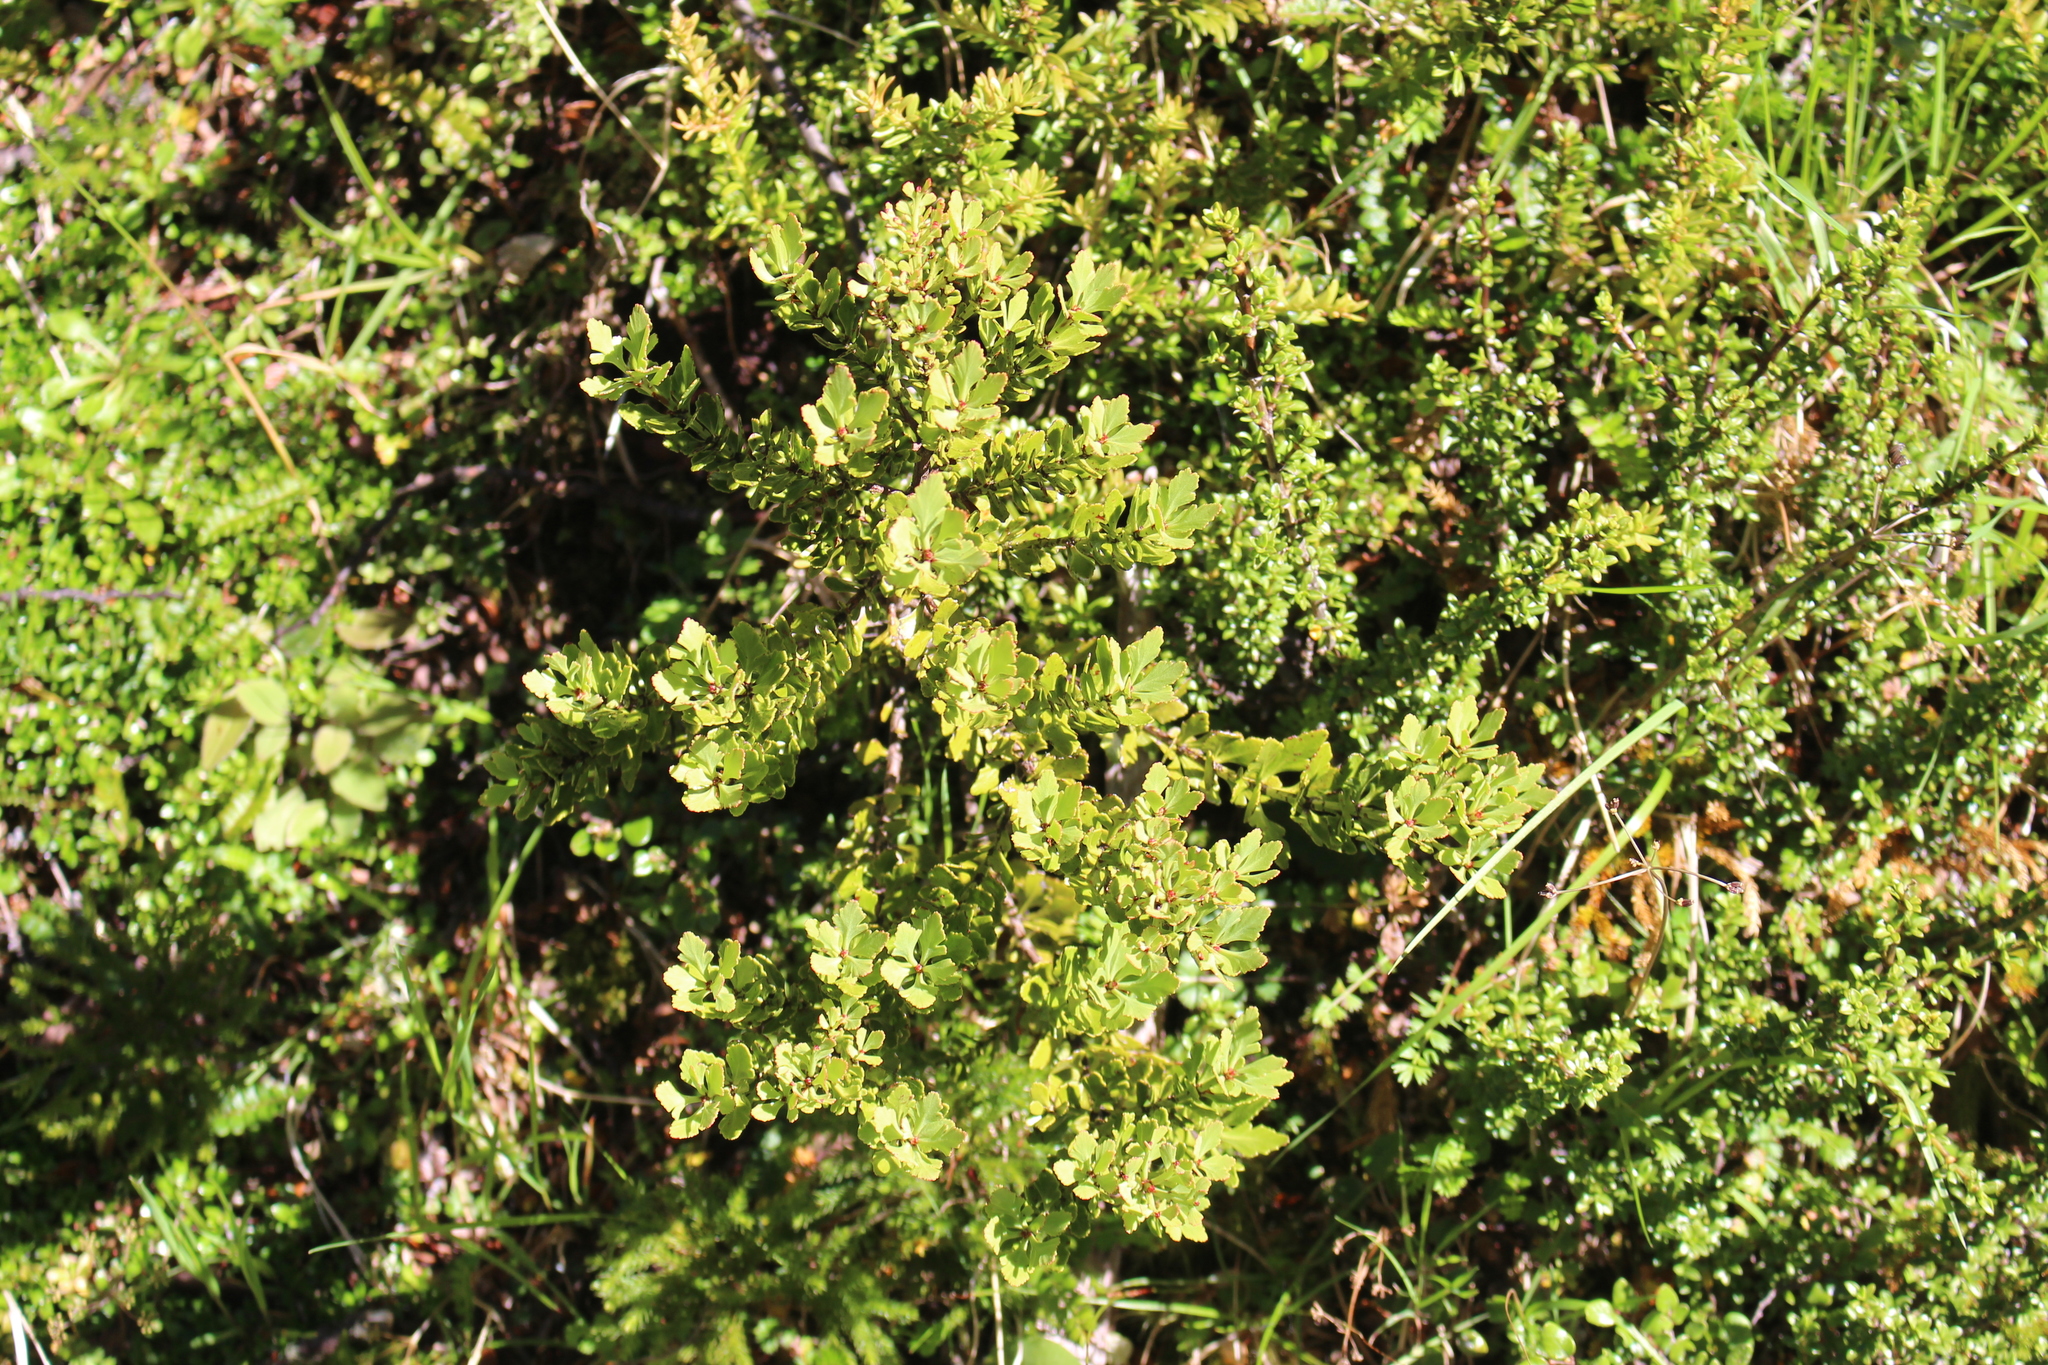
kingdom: Plantae
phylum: Tracheophyta
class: Pinopsida
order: Pinales
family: Phyllocladaceae
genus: Phyllocladus
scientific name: Phyllocladus trichomanoides
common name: Celery pine
